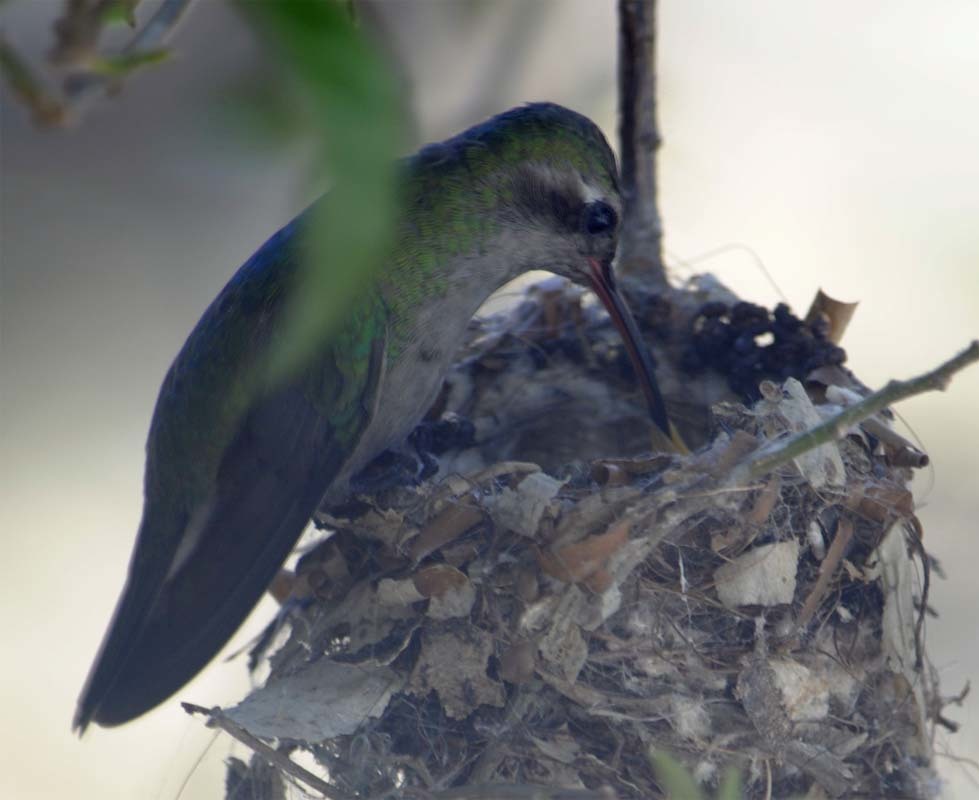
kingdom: Animalia
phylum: Chordata
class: Aves
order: Apodiformes
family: Trochilidae
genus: Cynanthus
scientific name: Cynanthus latirostris
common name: Broad-billed hummingbird
